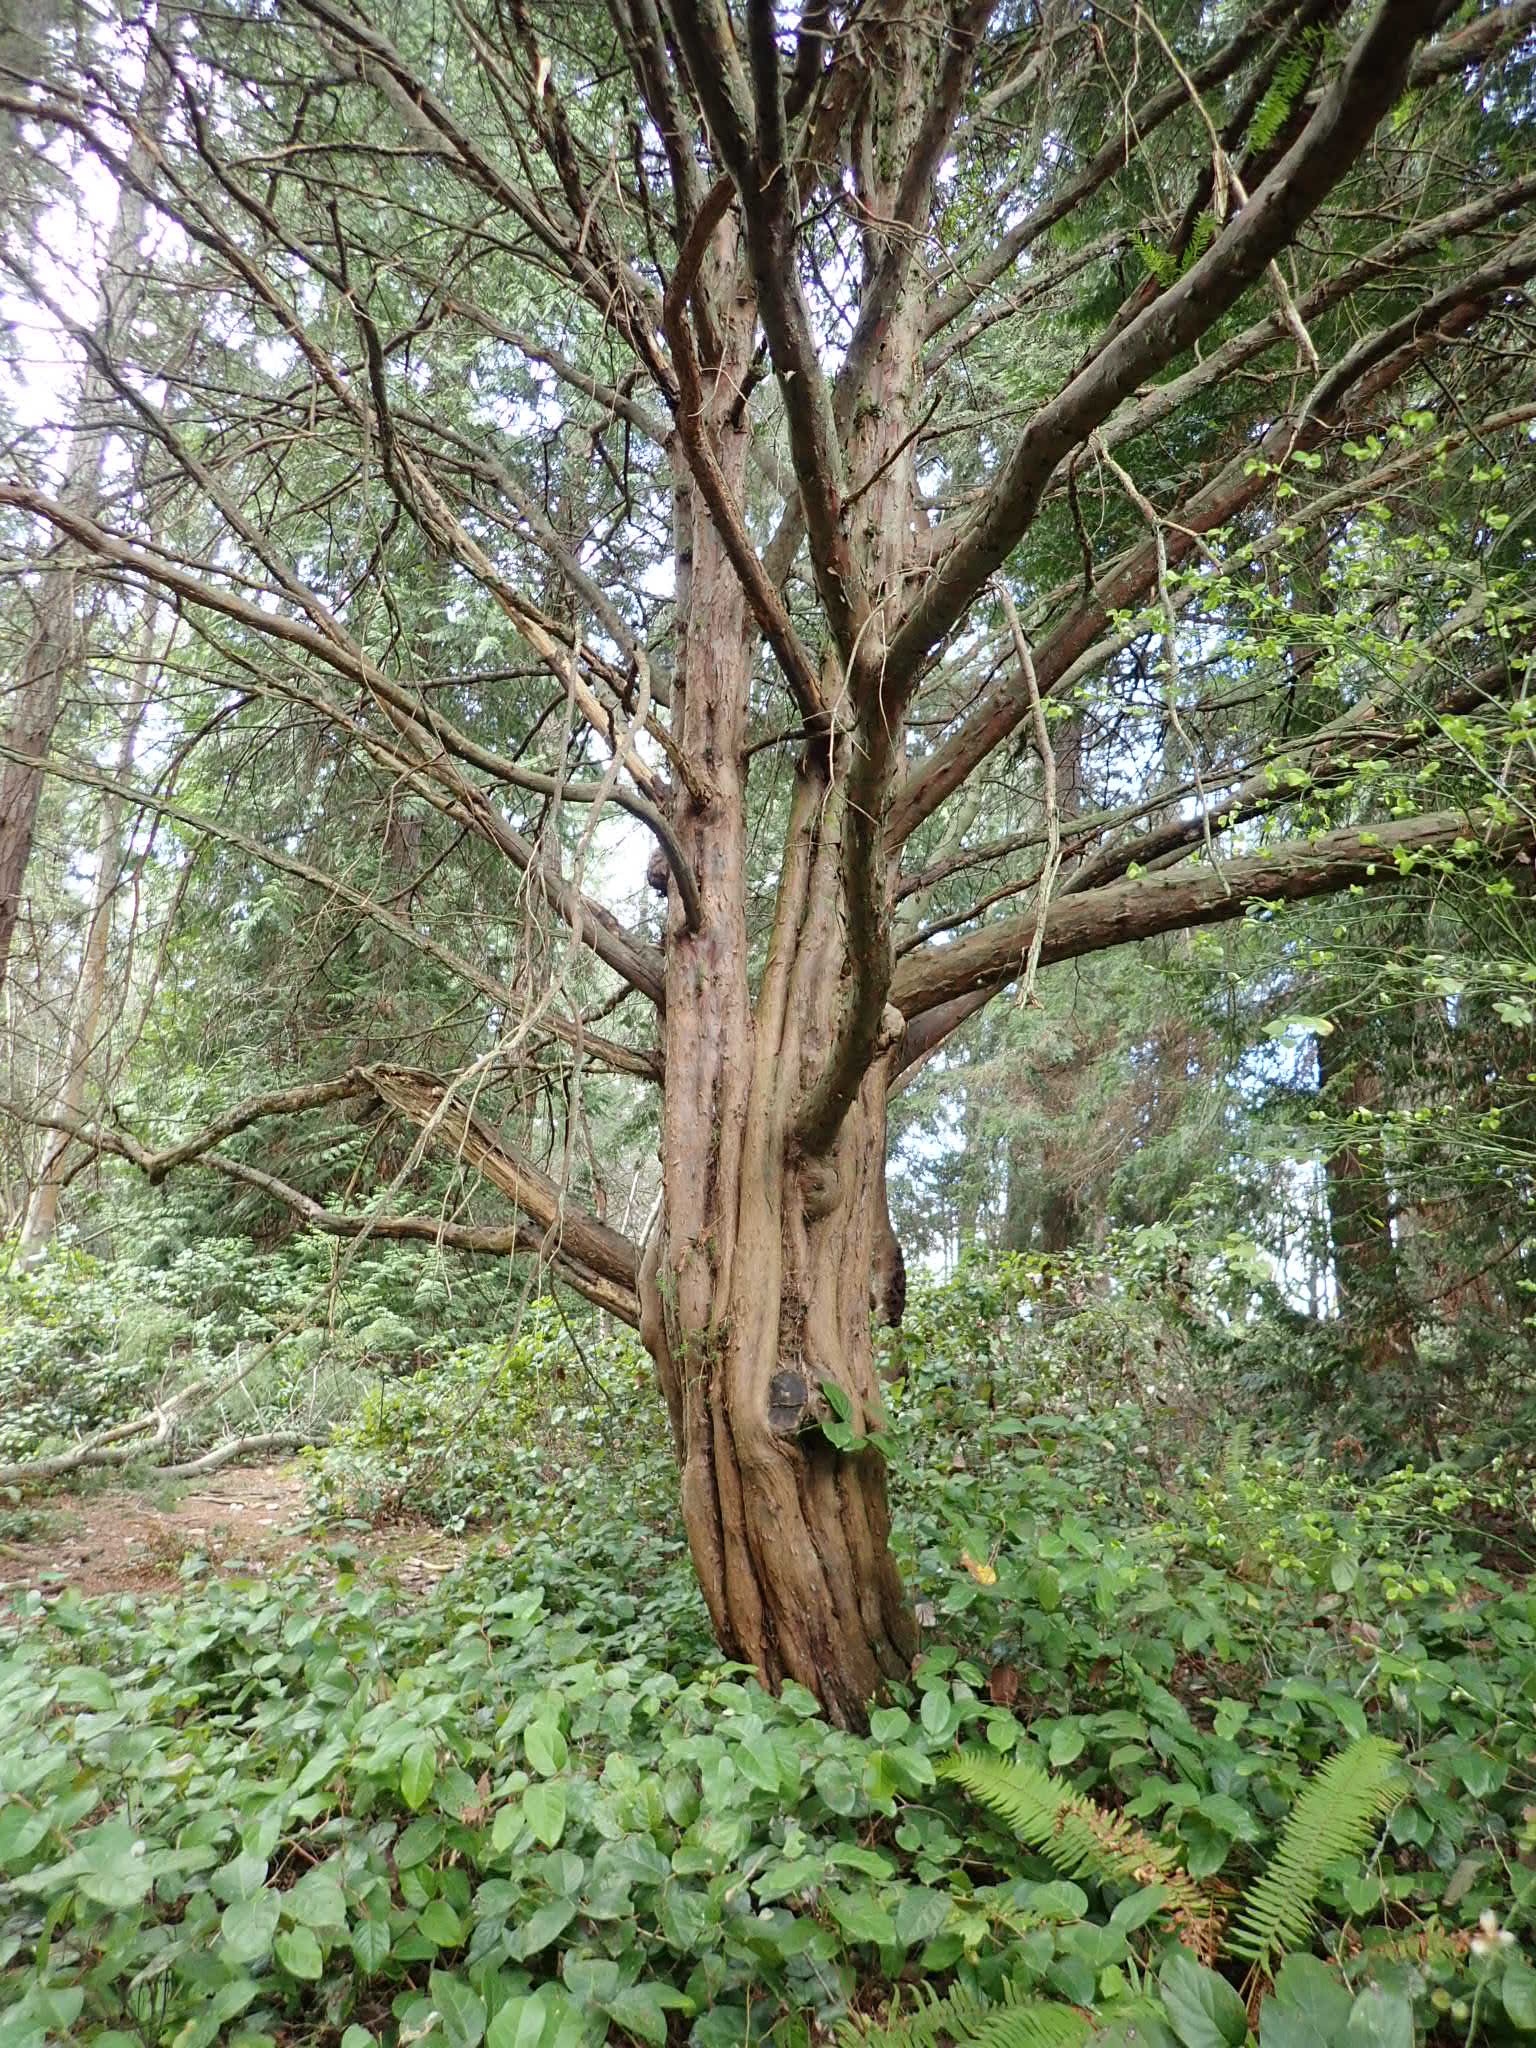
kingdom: Plantae
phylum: Tracheophyta
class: Pinopsida
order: Pinales
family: Taxaceae
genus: Taxus
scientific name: Taxus brevifolia
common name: Pacific yew
